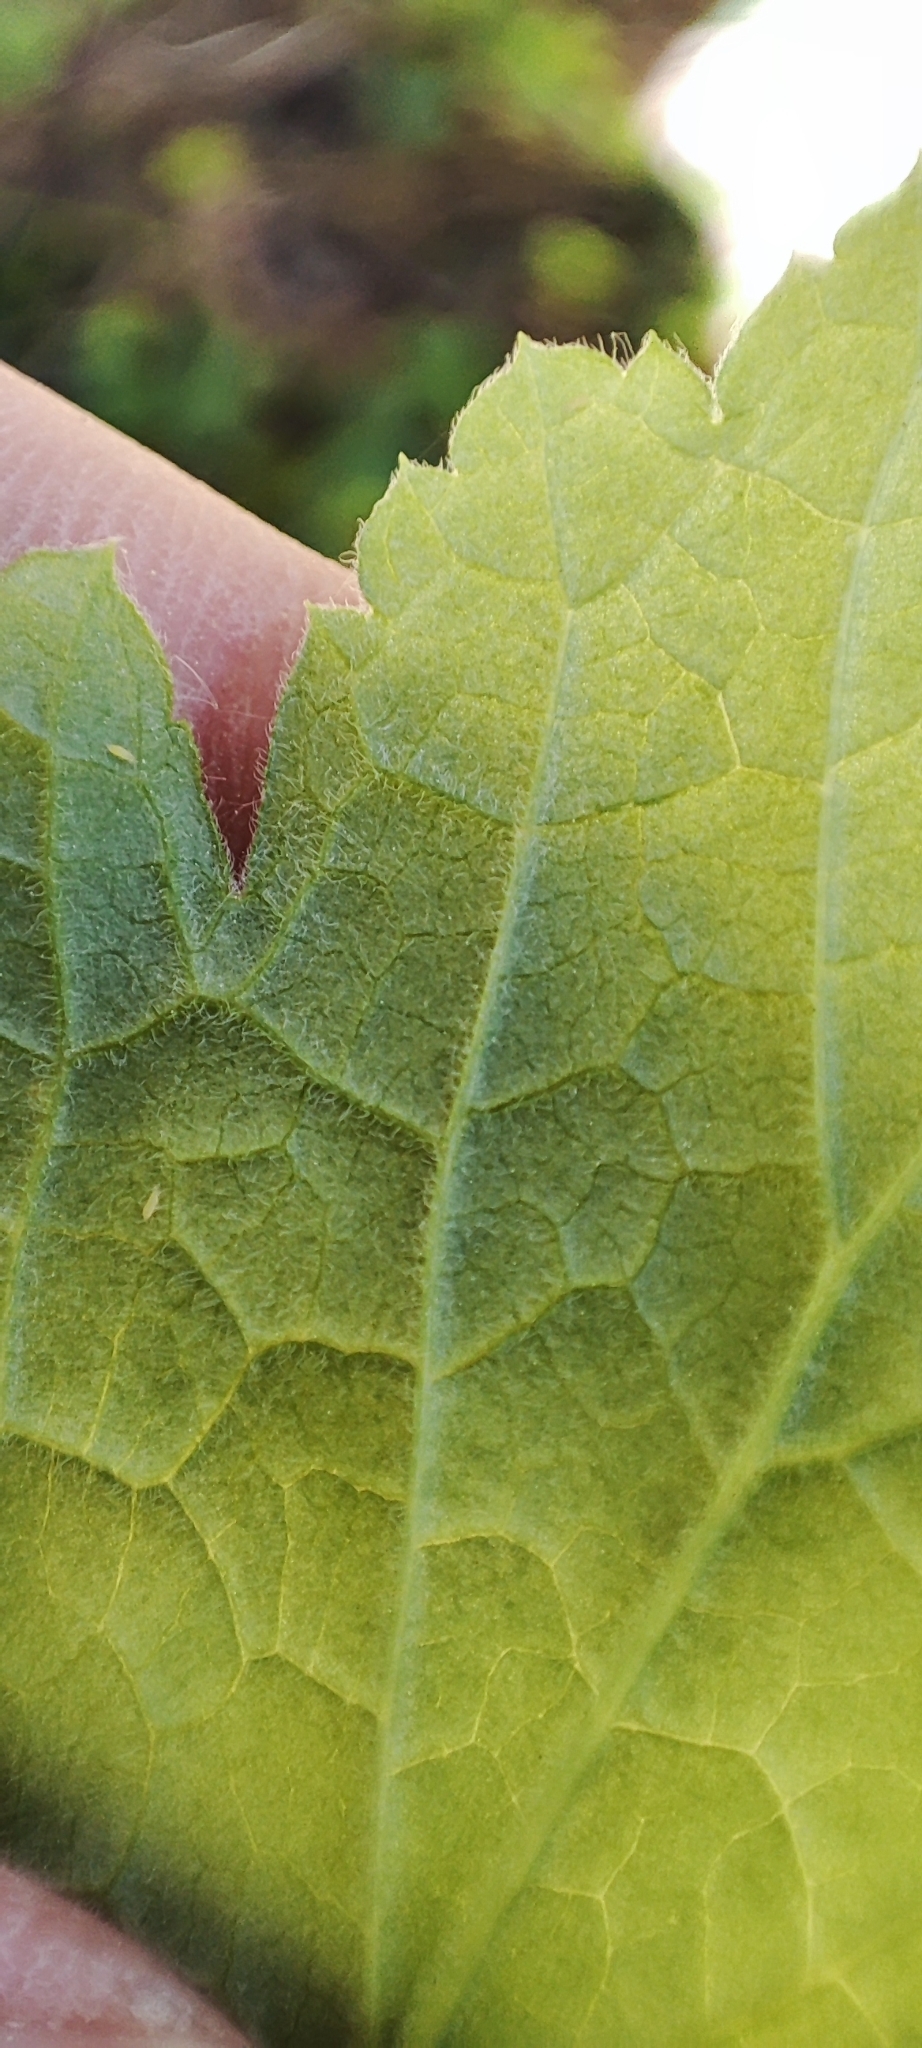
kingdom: Plantae
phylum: Tracheophyta
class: Magnoliopsida
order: Saxifragales
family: Grossulariaceae
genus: Ribes
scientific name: Ribes spicatum
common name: Downy currant
